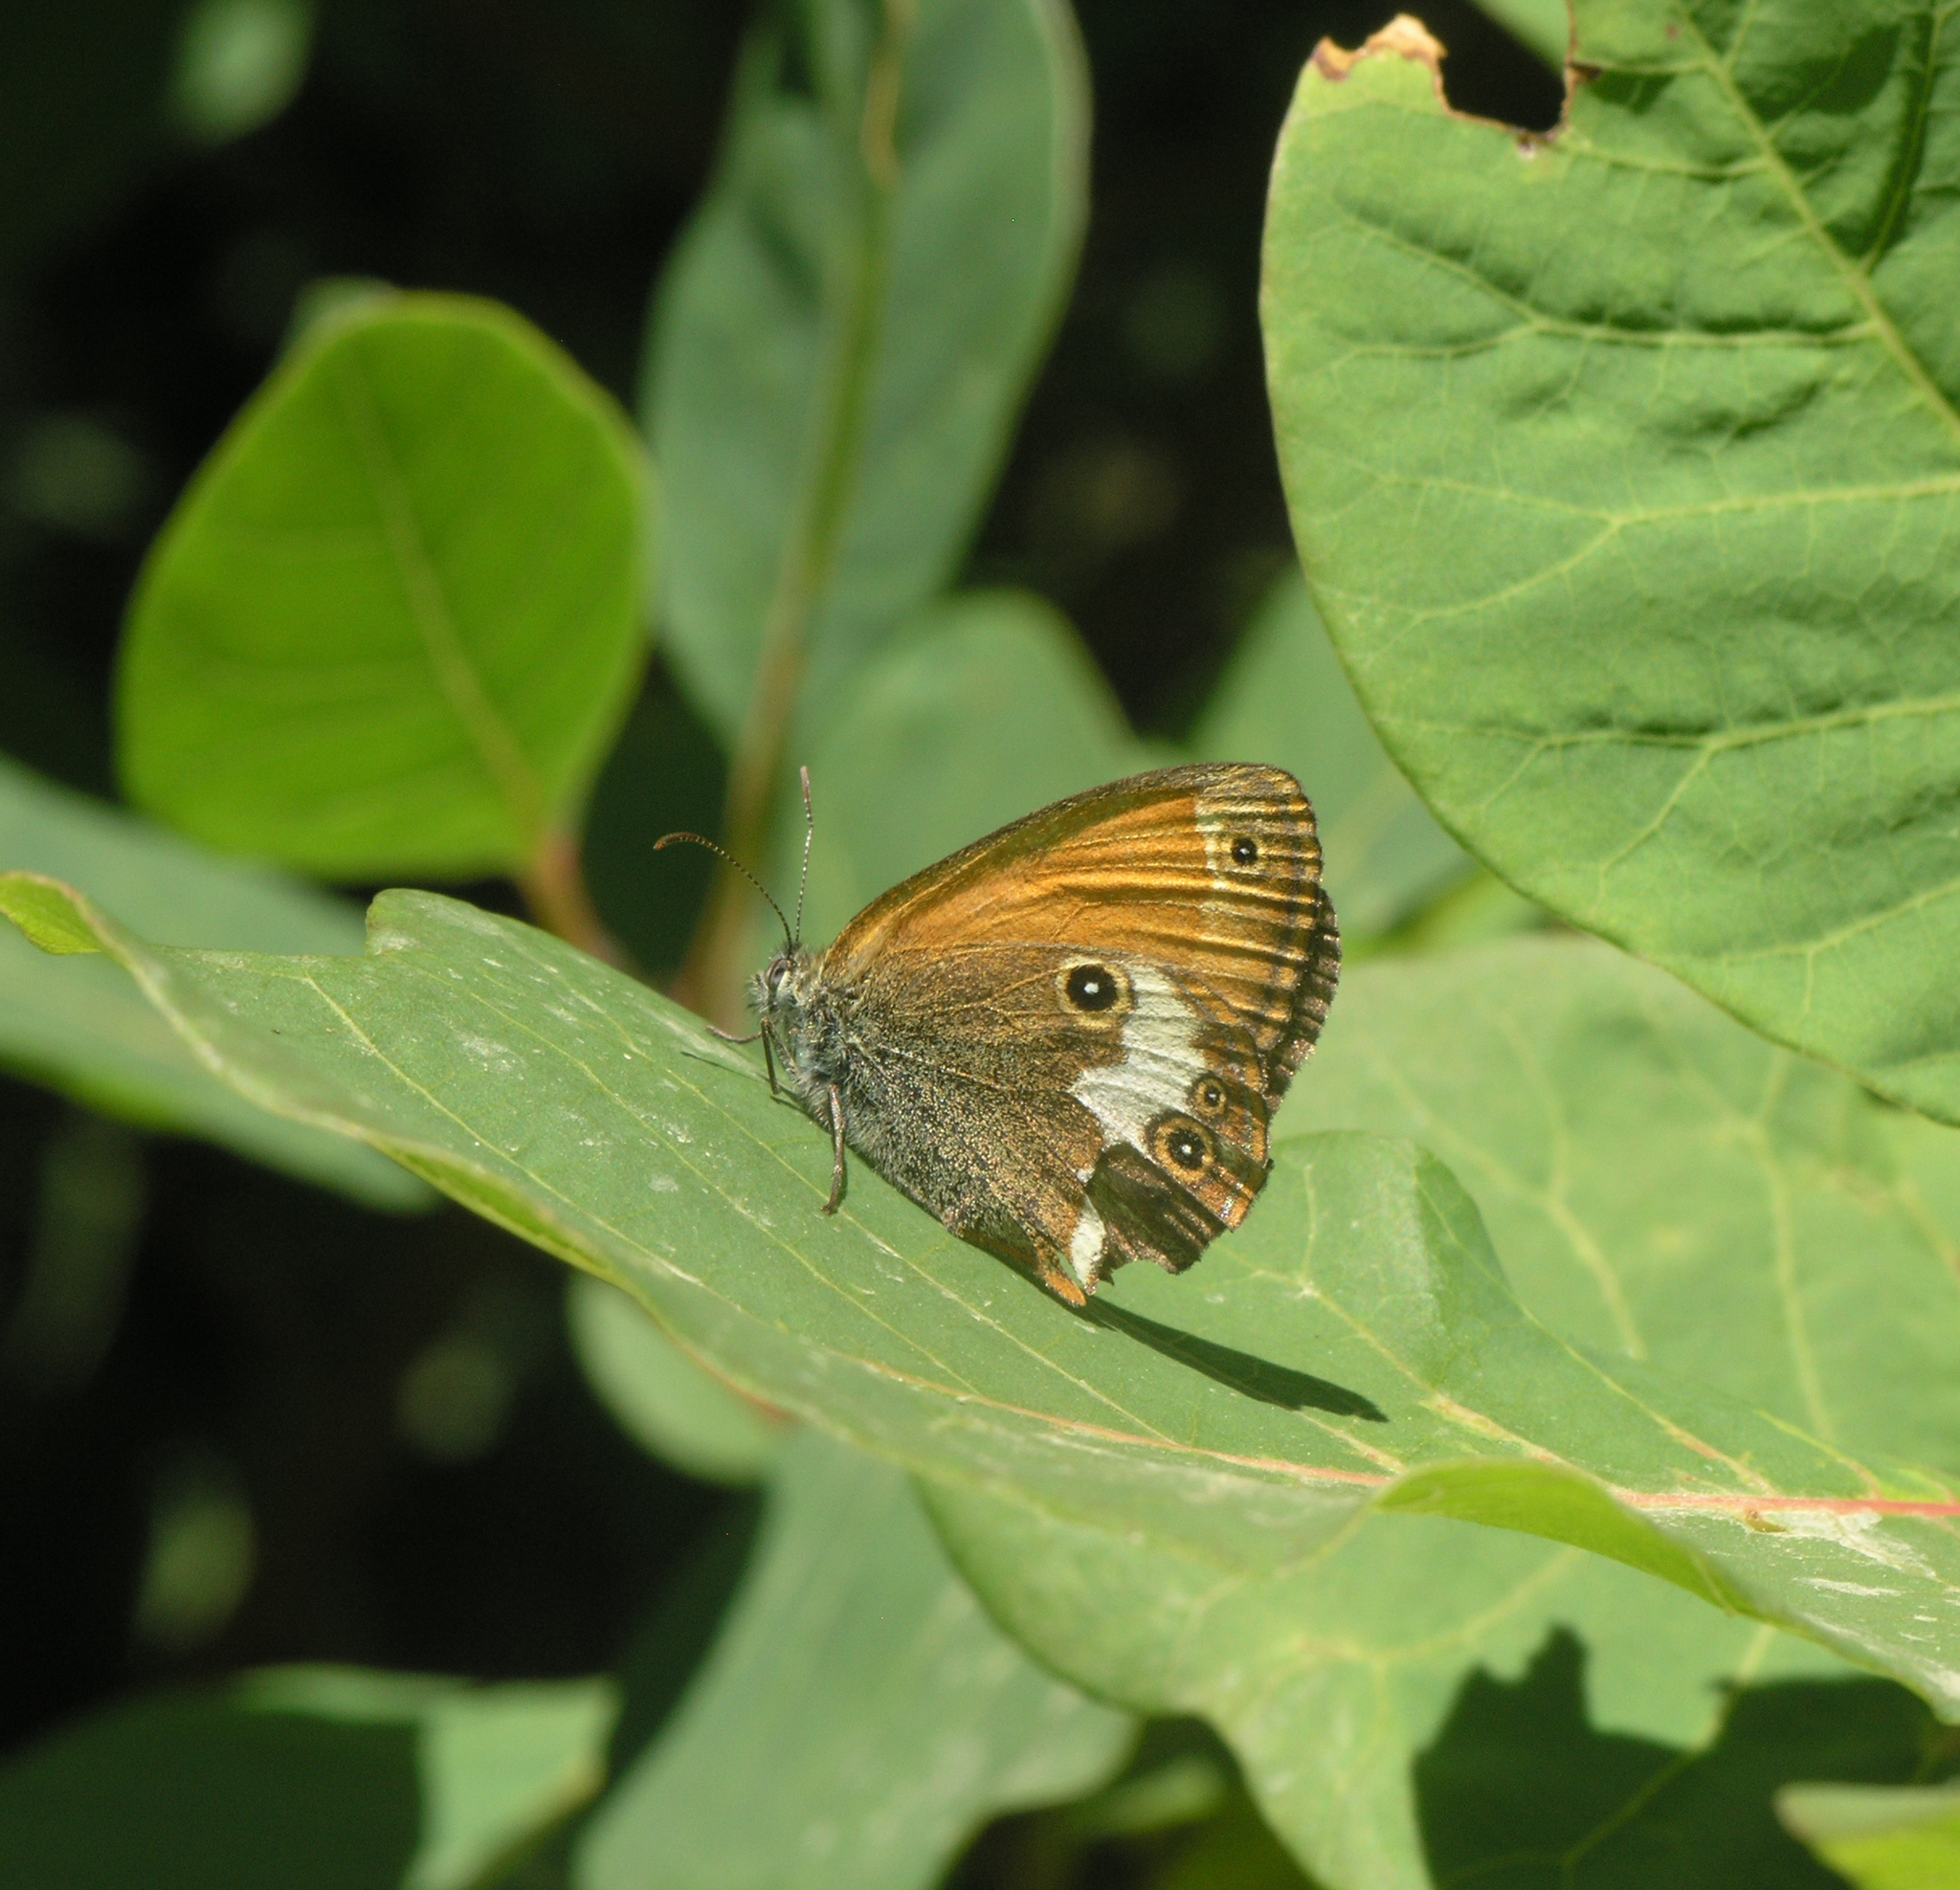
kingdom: Animalia
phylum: Arthropoda
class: Insecta
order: Lepidoptera
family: Nymphalidae
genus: Coenonympha
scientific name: Coenonympha arcania
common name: Pearly heath
